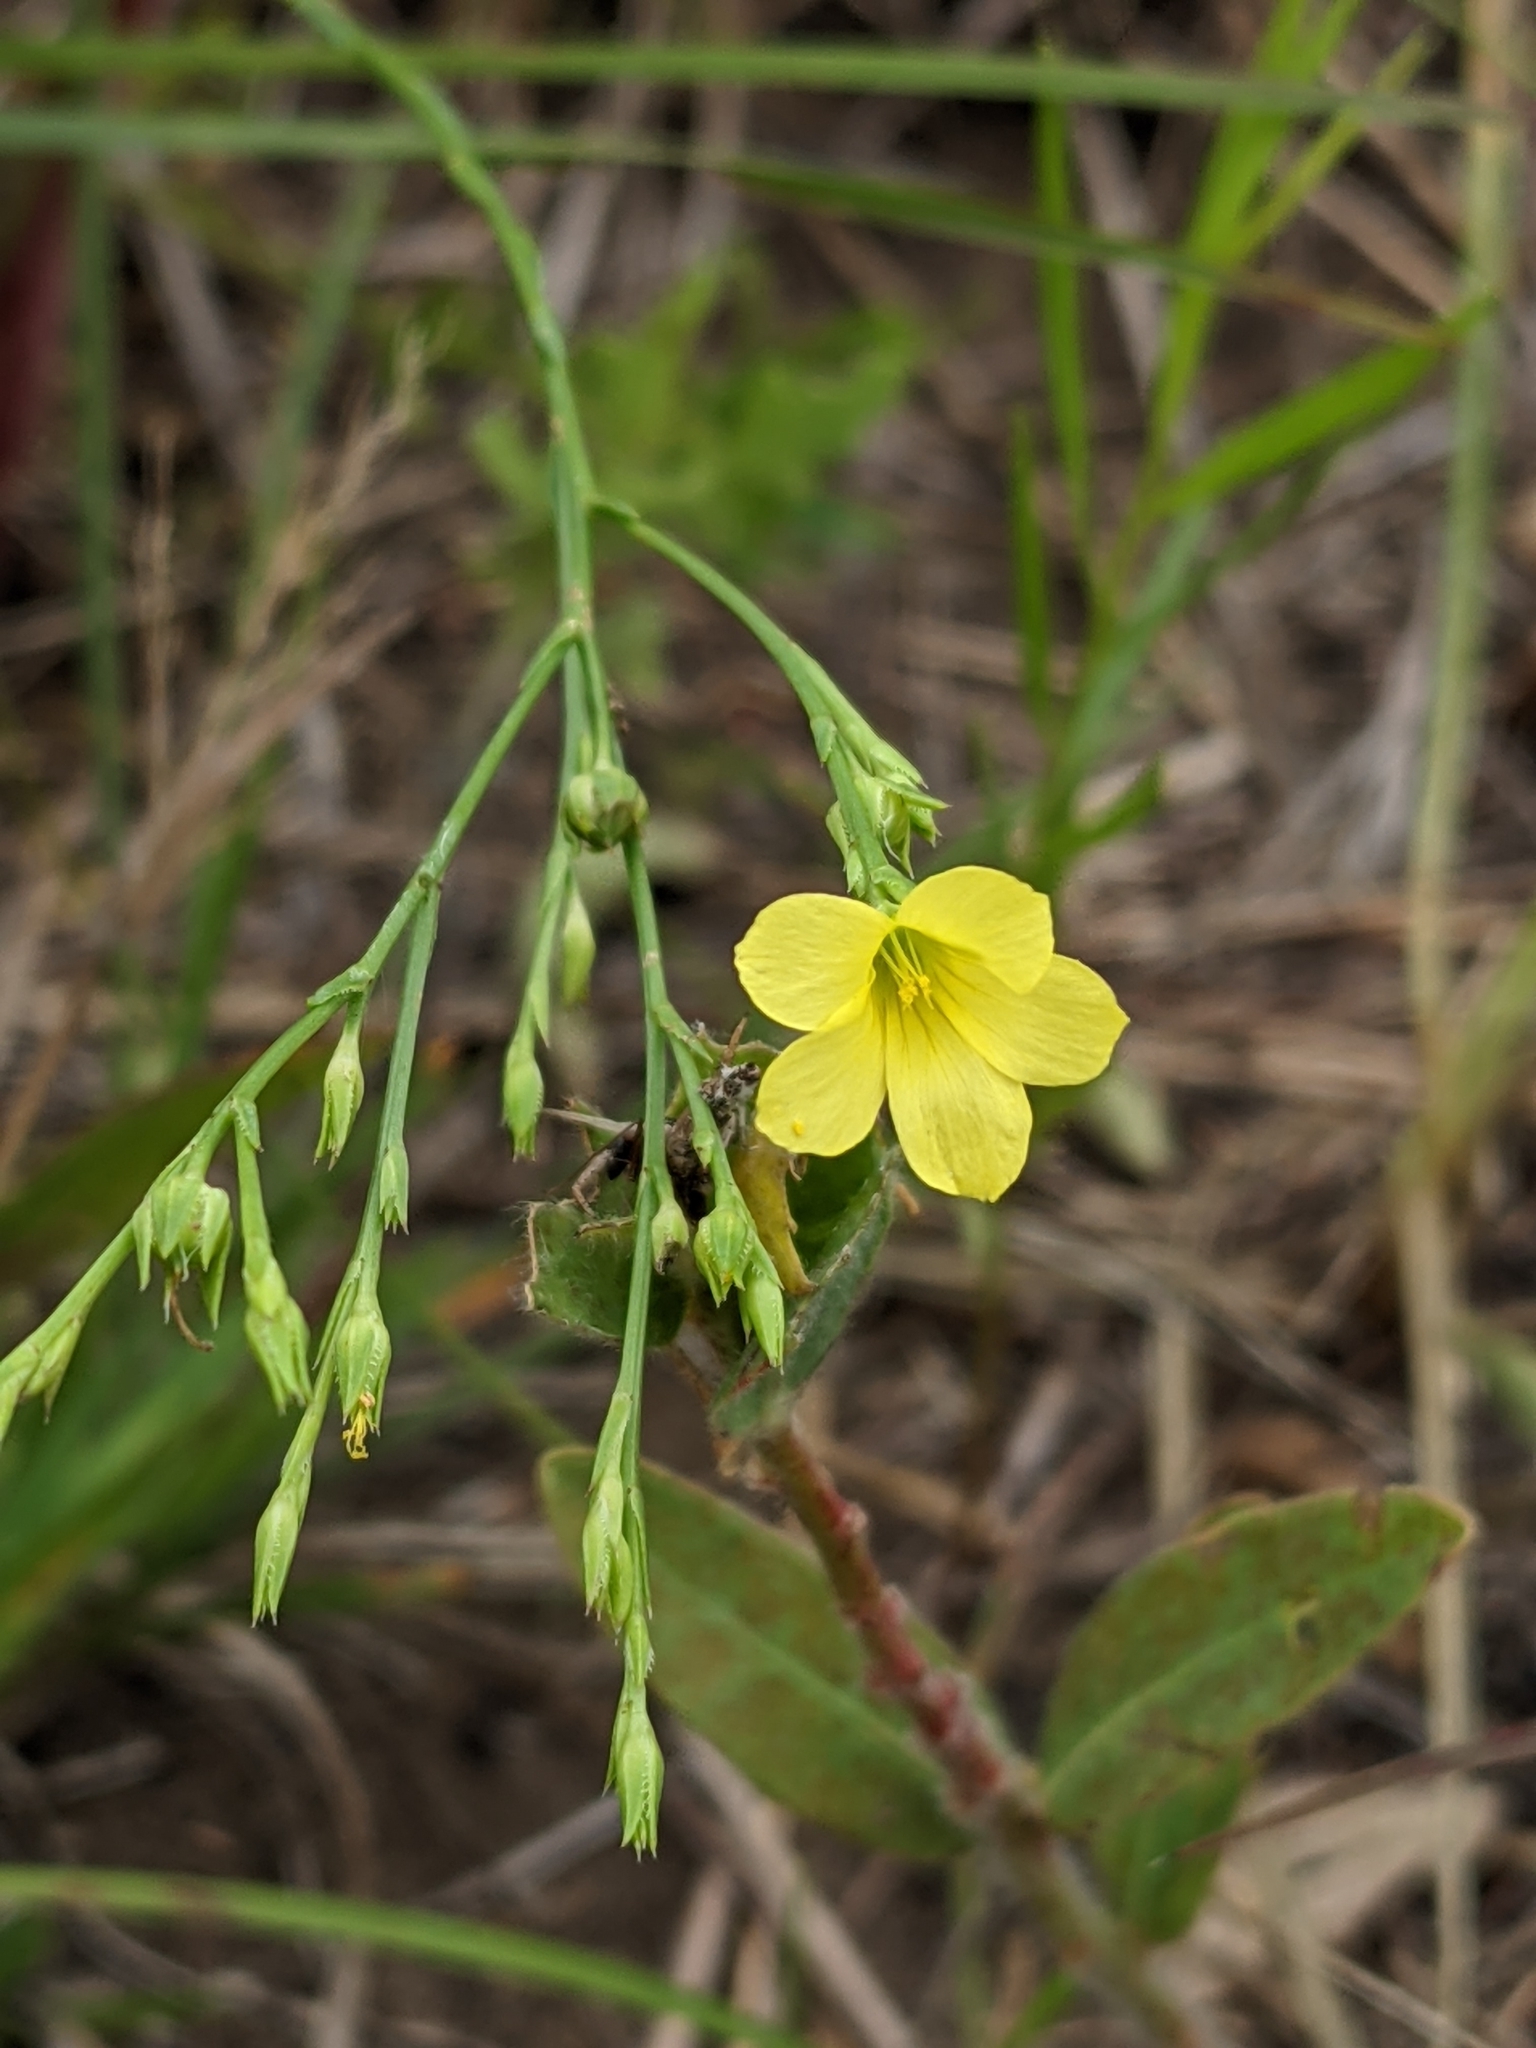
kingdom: Plantae
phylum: Tracheophyta
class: Magnoliopsida
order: Malpighiales
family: Linaceae
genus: Linum
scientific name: Linum sulcatum
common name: Grooved flax
